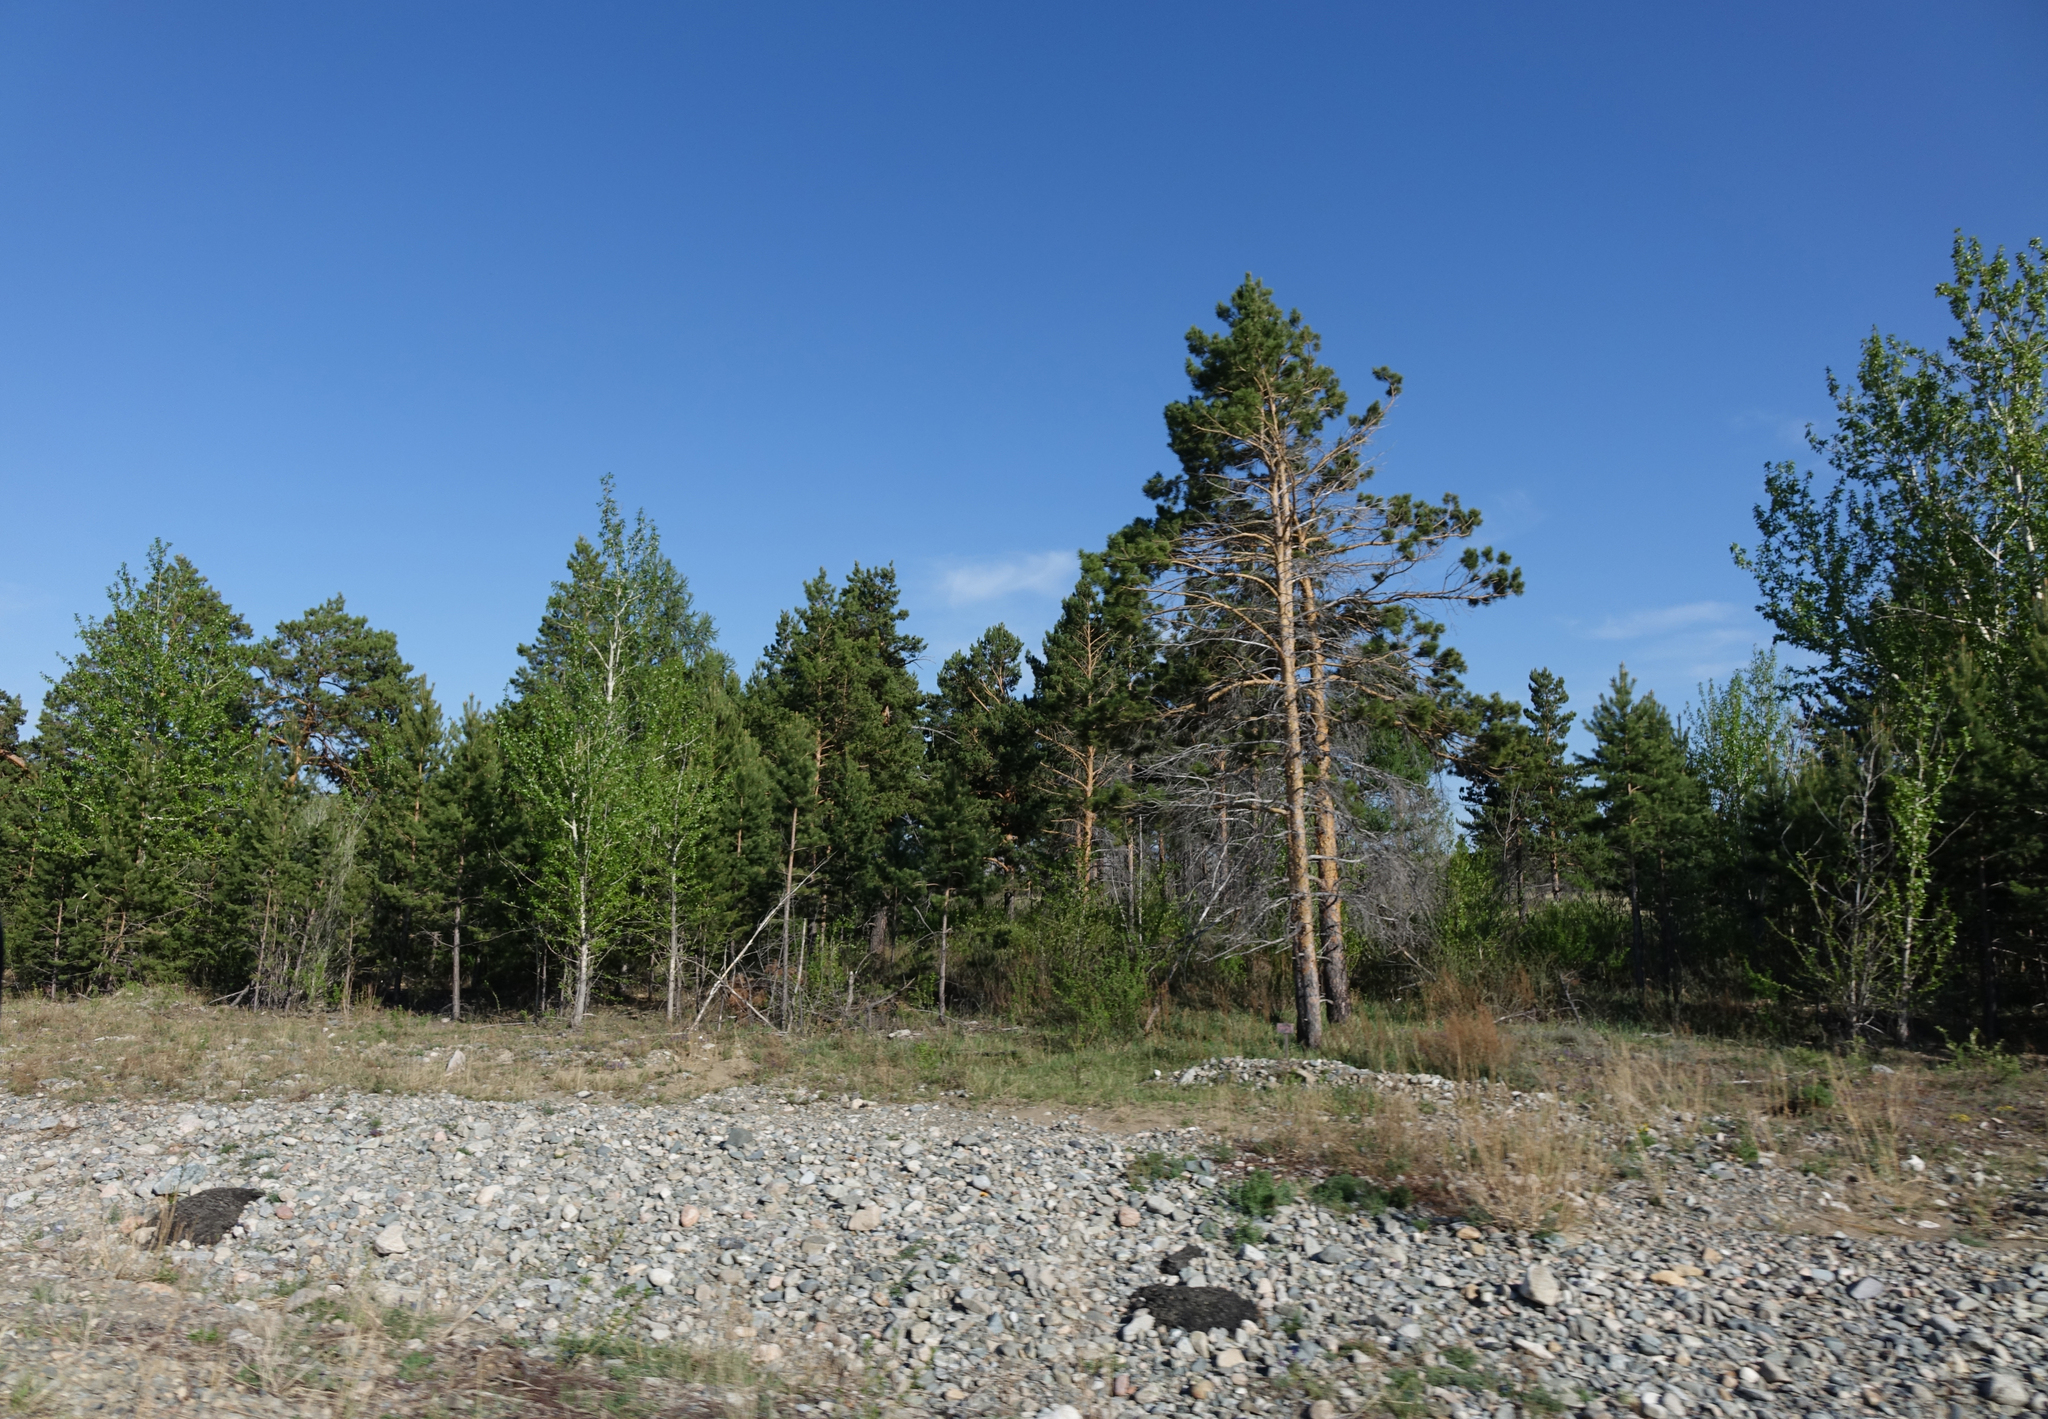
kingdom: Plantae
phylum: Tracheophyta
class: Pinopsida
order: Pinales
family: Pinaceae
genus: Pinus
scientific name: Pinus sylvestris
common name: Scots pine
